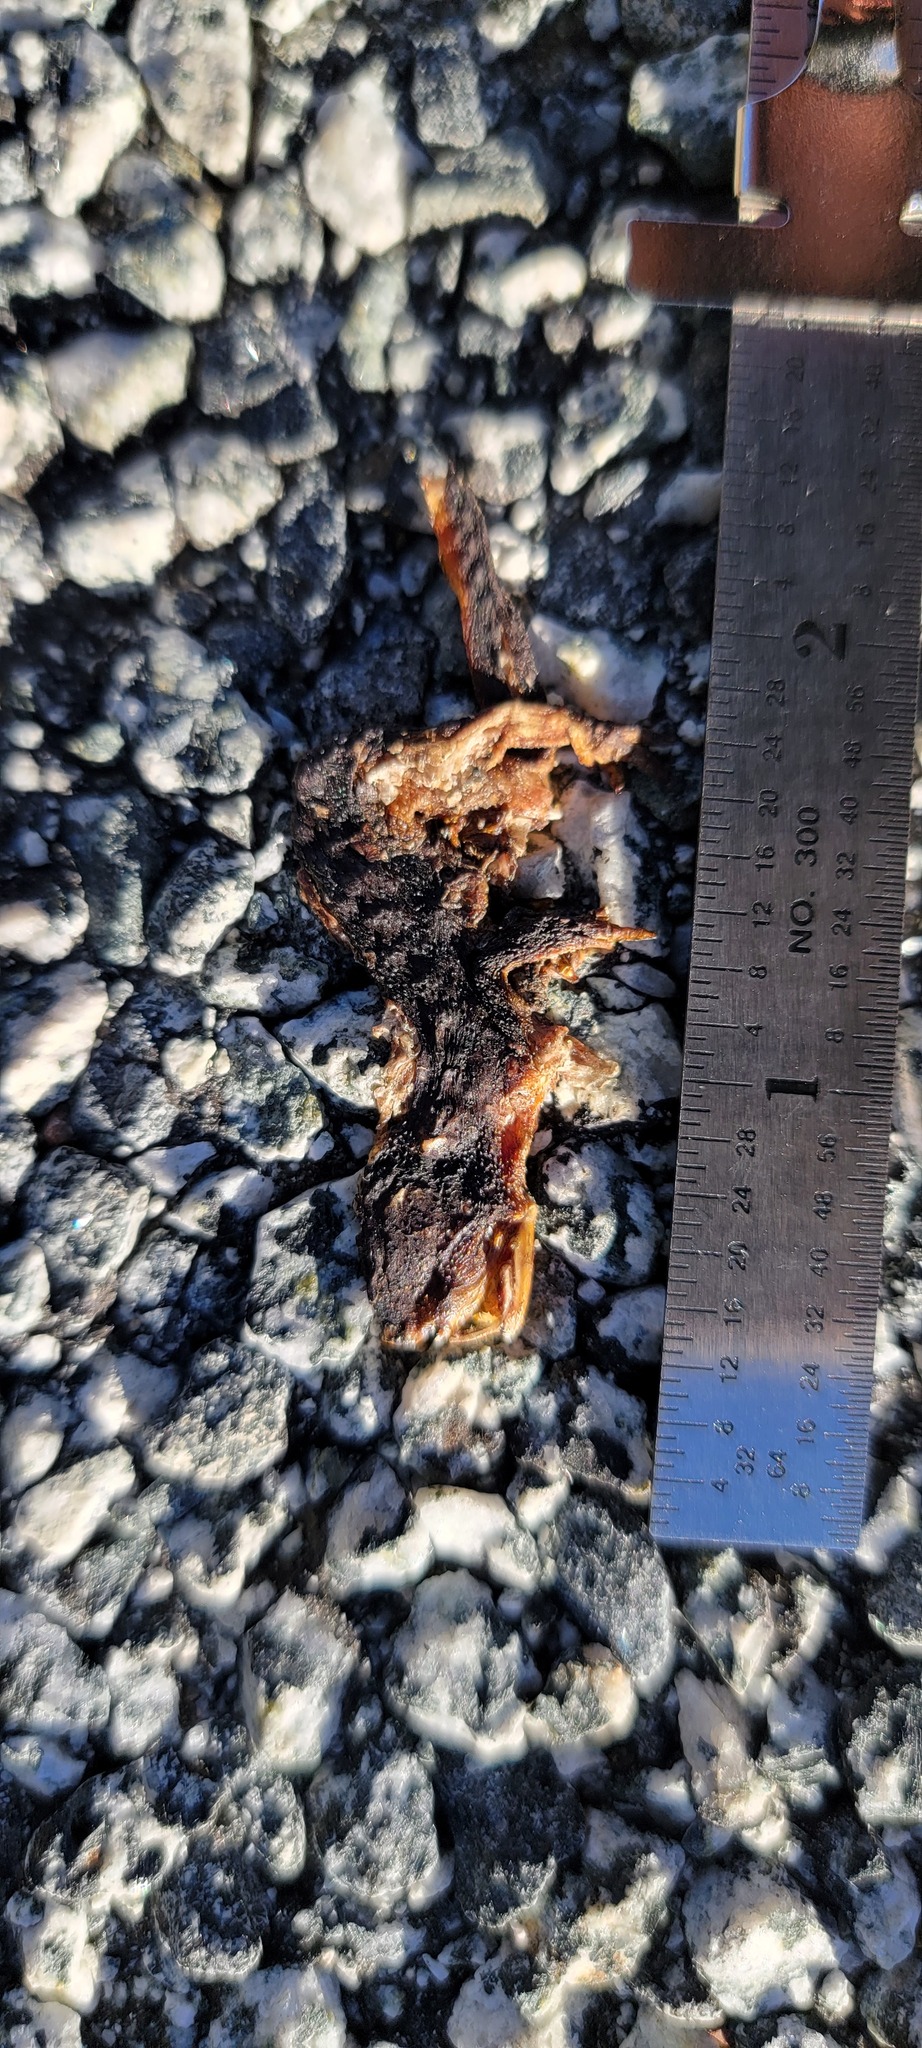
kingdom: Animalia
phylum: Chordata
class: Amphibia
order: Caudata
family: Salamandridae
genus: Taricha
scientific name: Taricha
